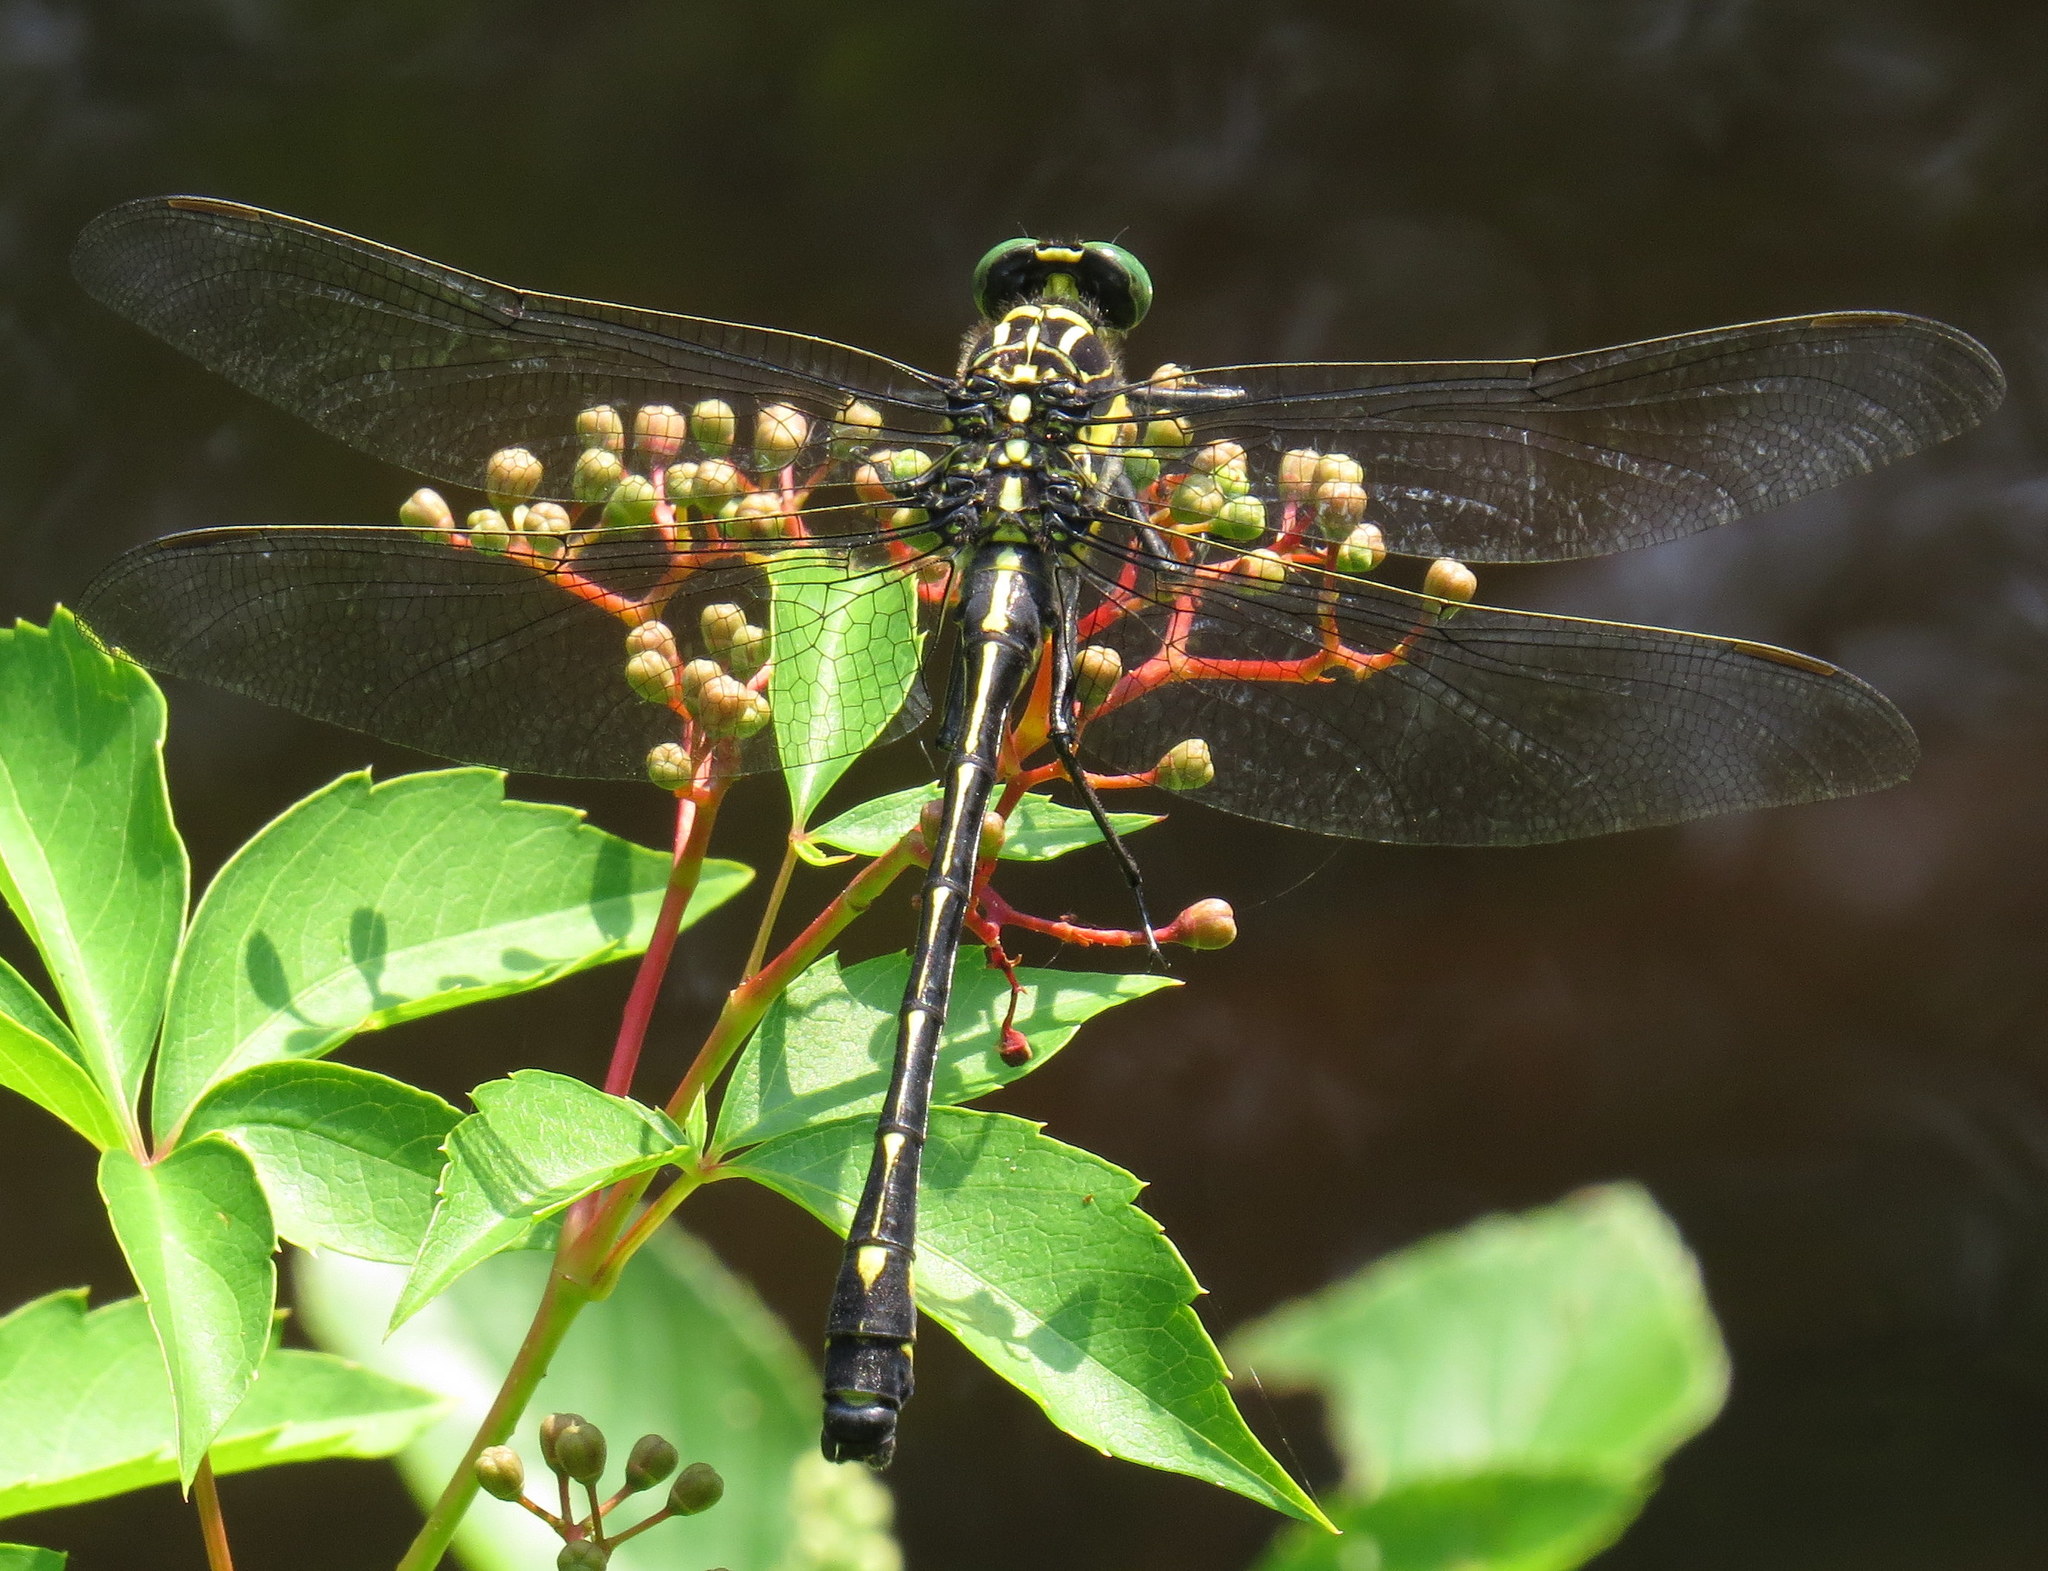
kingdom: Animalia
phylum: Arthropoda
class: Insecta
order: Odonata
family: Gomphidae
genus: Hagenius
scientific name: Hagenius brevistylus
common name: Dragonhunter
